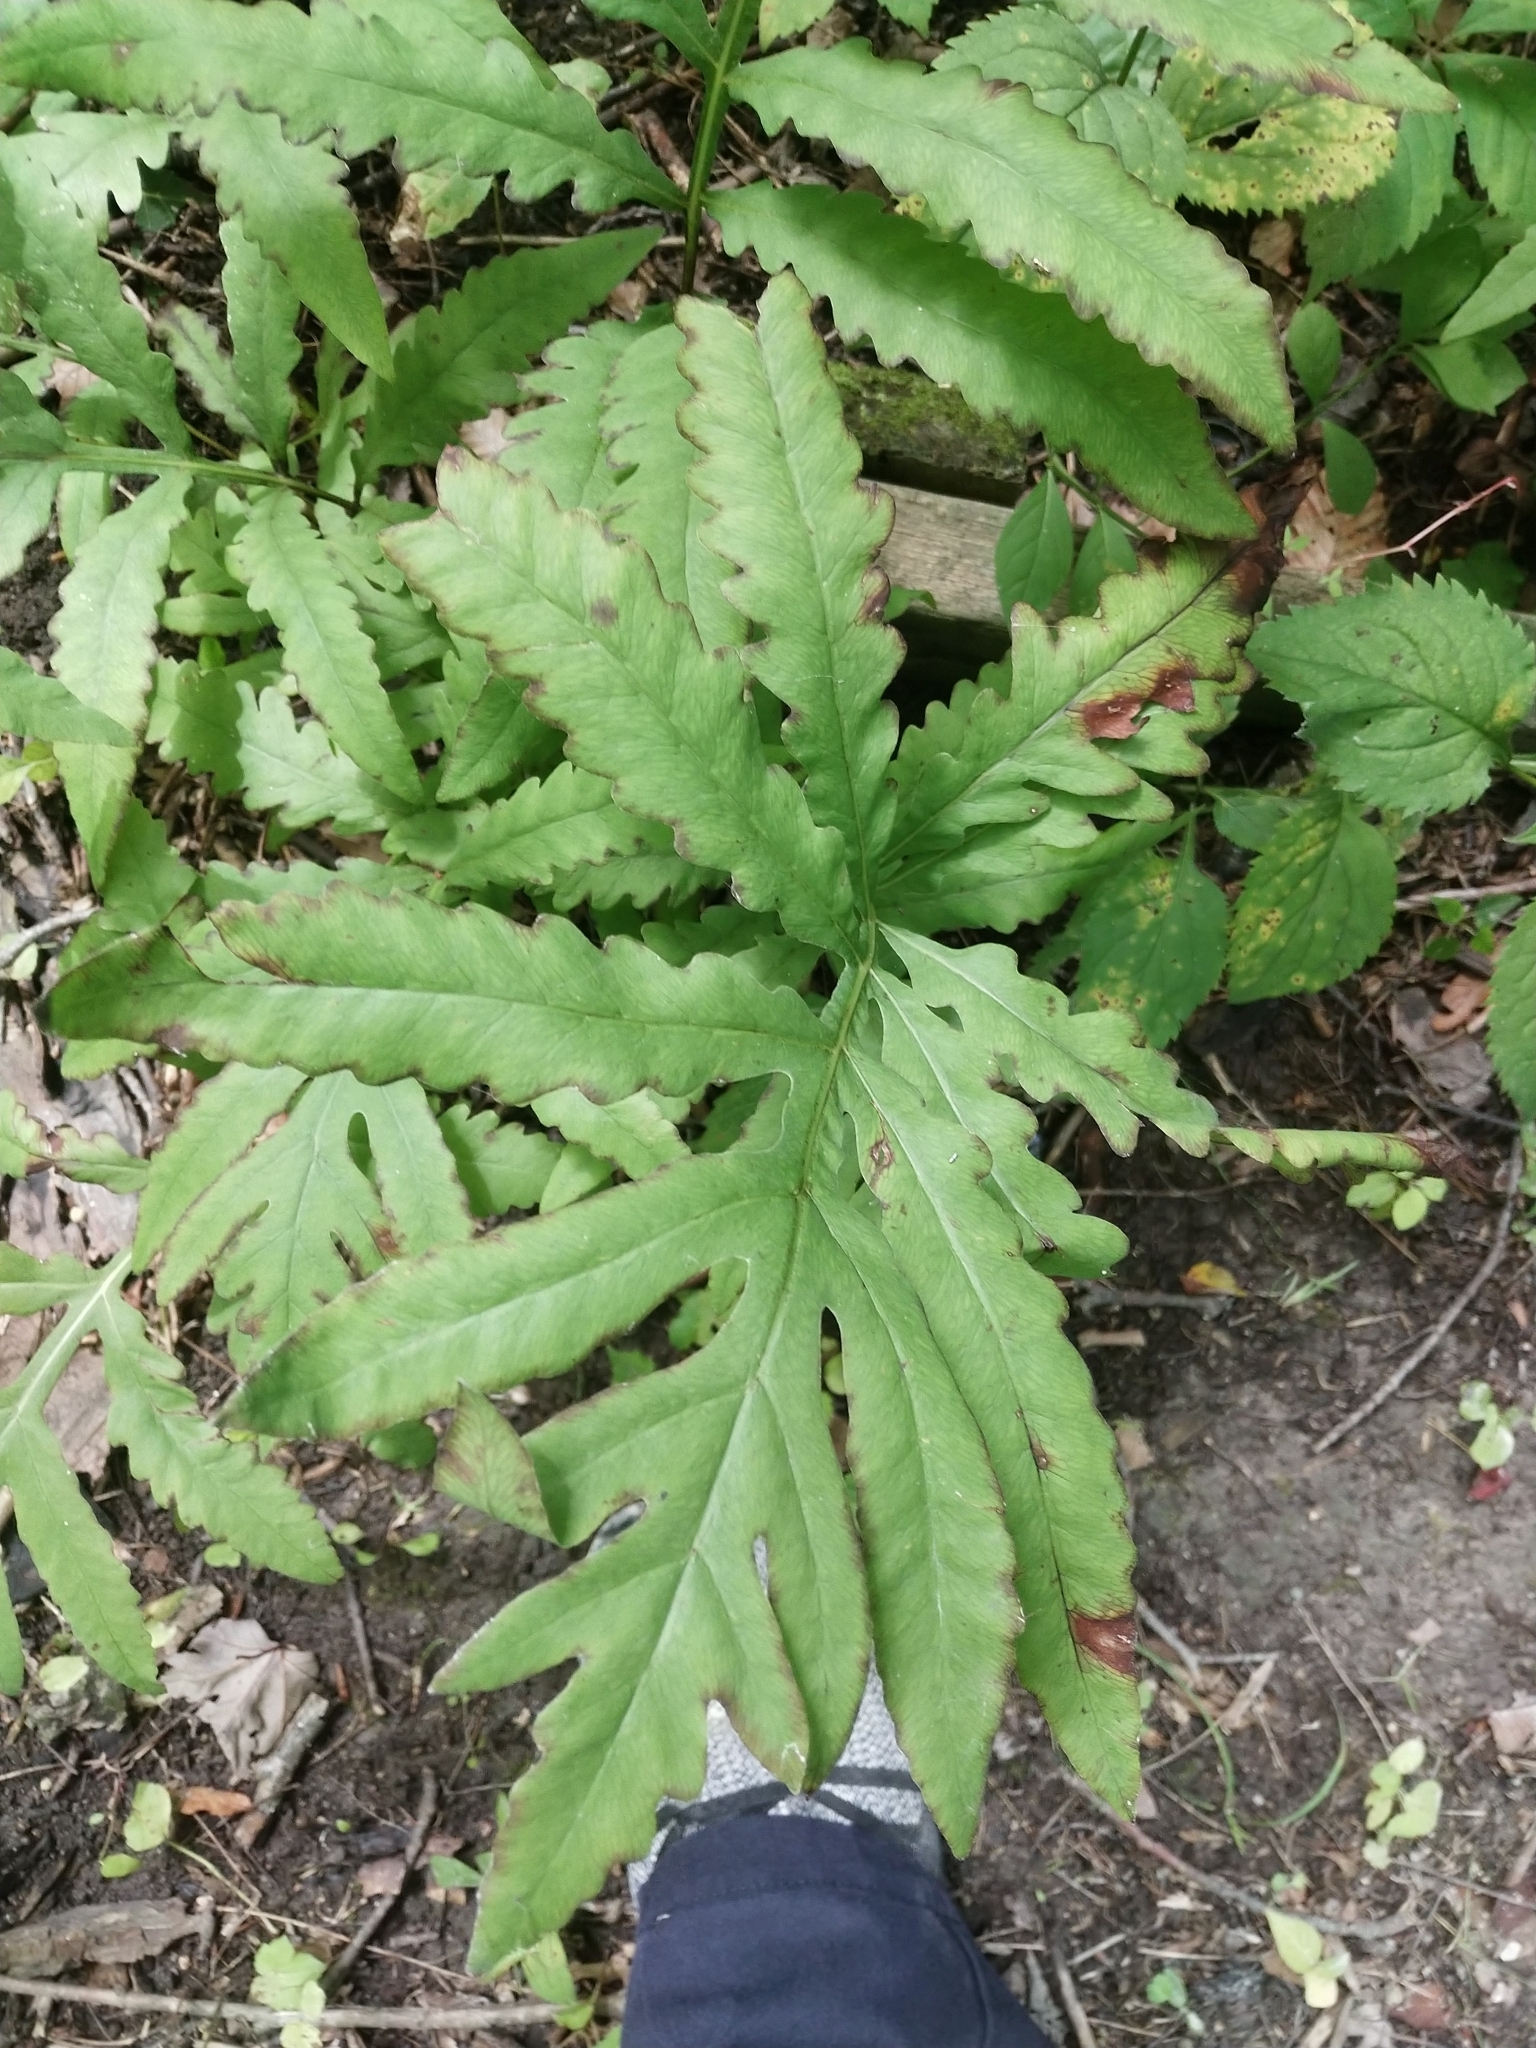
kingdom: Plantae
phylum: Tracheophyta
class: Polypodiopsida
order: Polypodiales
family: Onocleaceae
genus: Onoclea
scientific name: Onoclea sensibilis
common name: Sensitive fern
